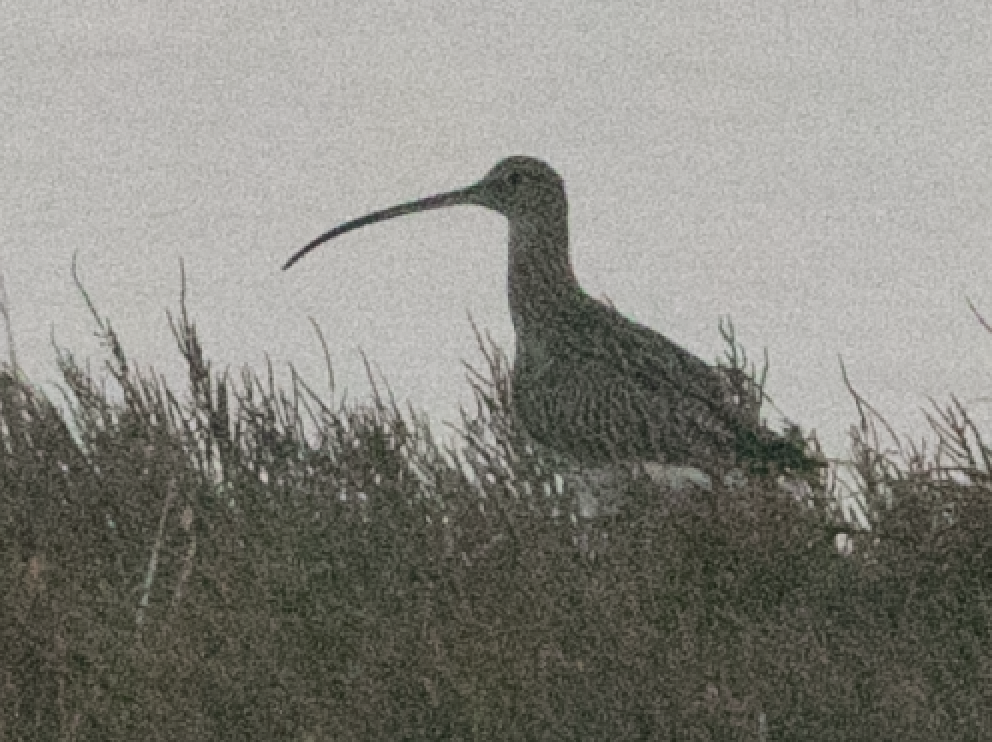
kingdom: Animalia
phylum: Chordata
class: Aves
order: Charadriiformes
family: Scolopacidae
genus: Numenius
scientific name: Numenius arquata
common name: Eurasian curlew
